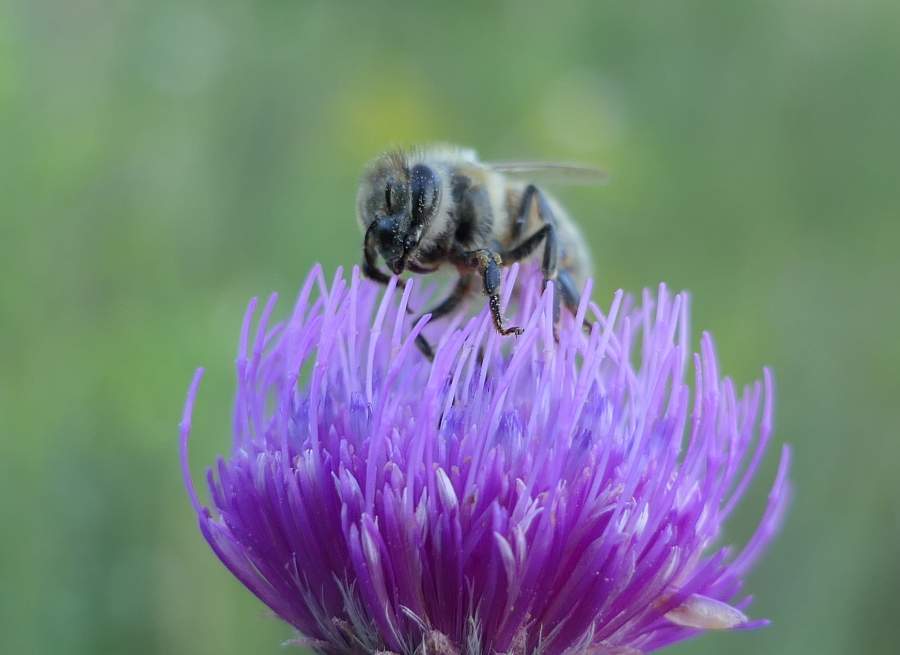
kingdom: Animalia
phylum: Arthropoda
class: Insecta
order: Hymenoptera
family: Apidae
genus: Apis
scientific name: Apis mellifera
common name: Honey bee
